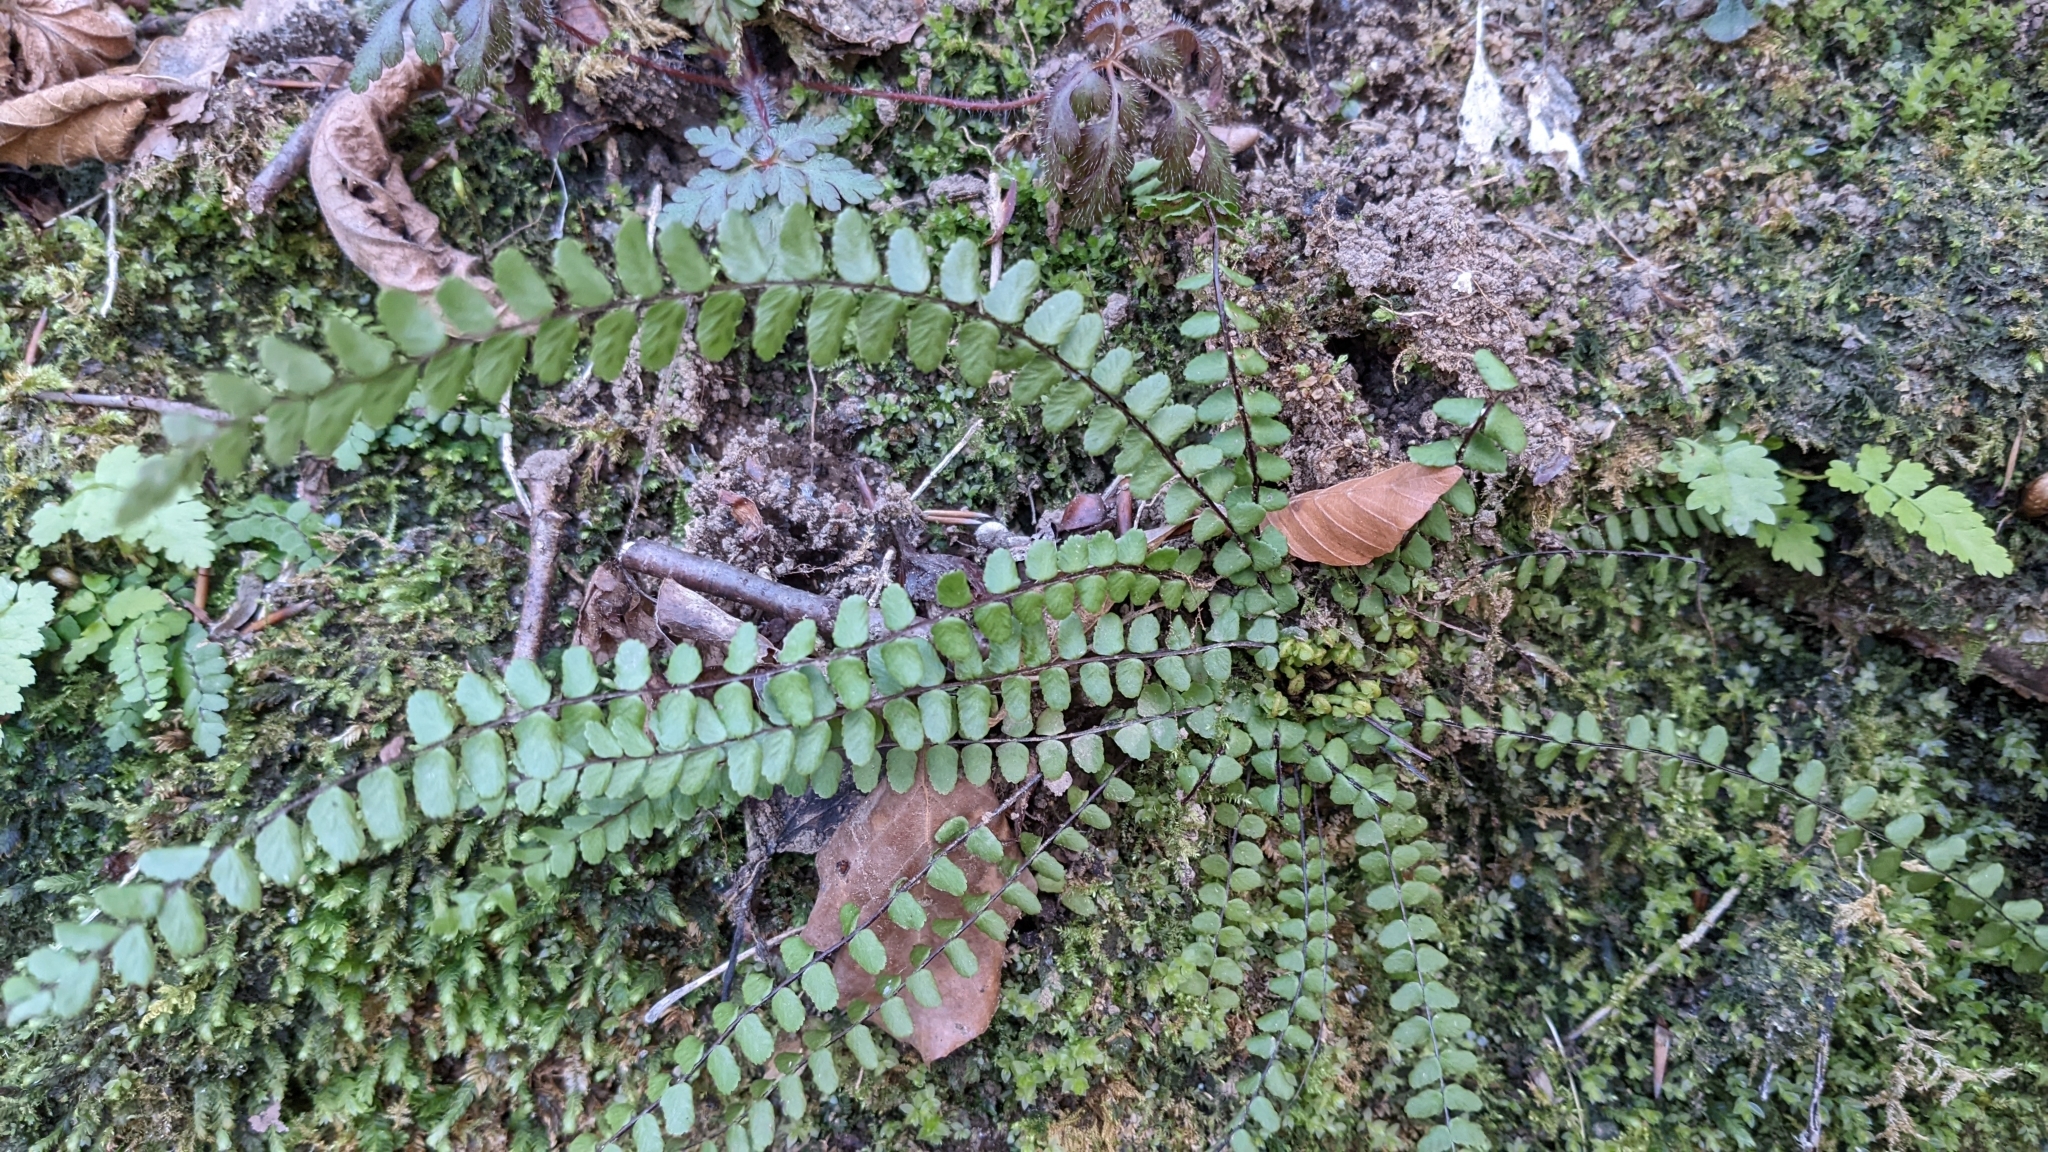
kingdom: Plantae
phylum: Tracheophyta
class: Polypodiopsida
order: Polypodiales
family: Aspleniaceae
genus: Asplenium
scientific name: Asplenium trichomanes
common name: Maidenhair spleenwort
